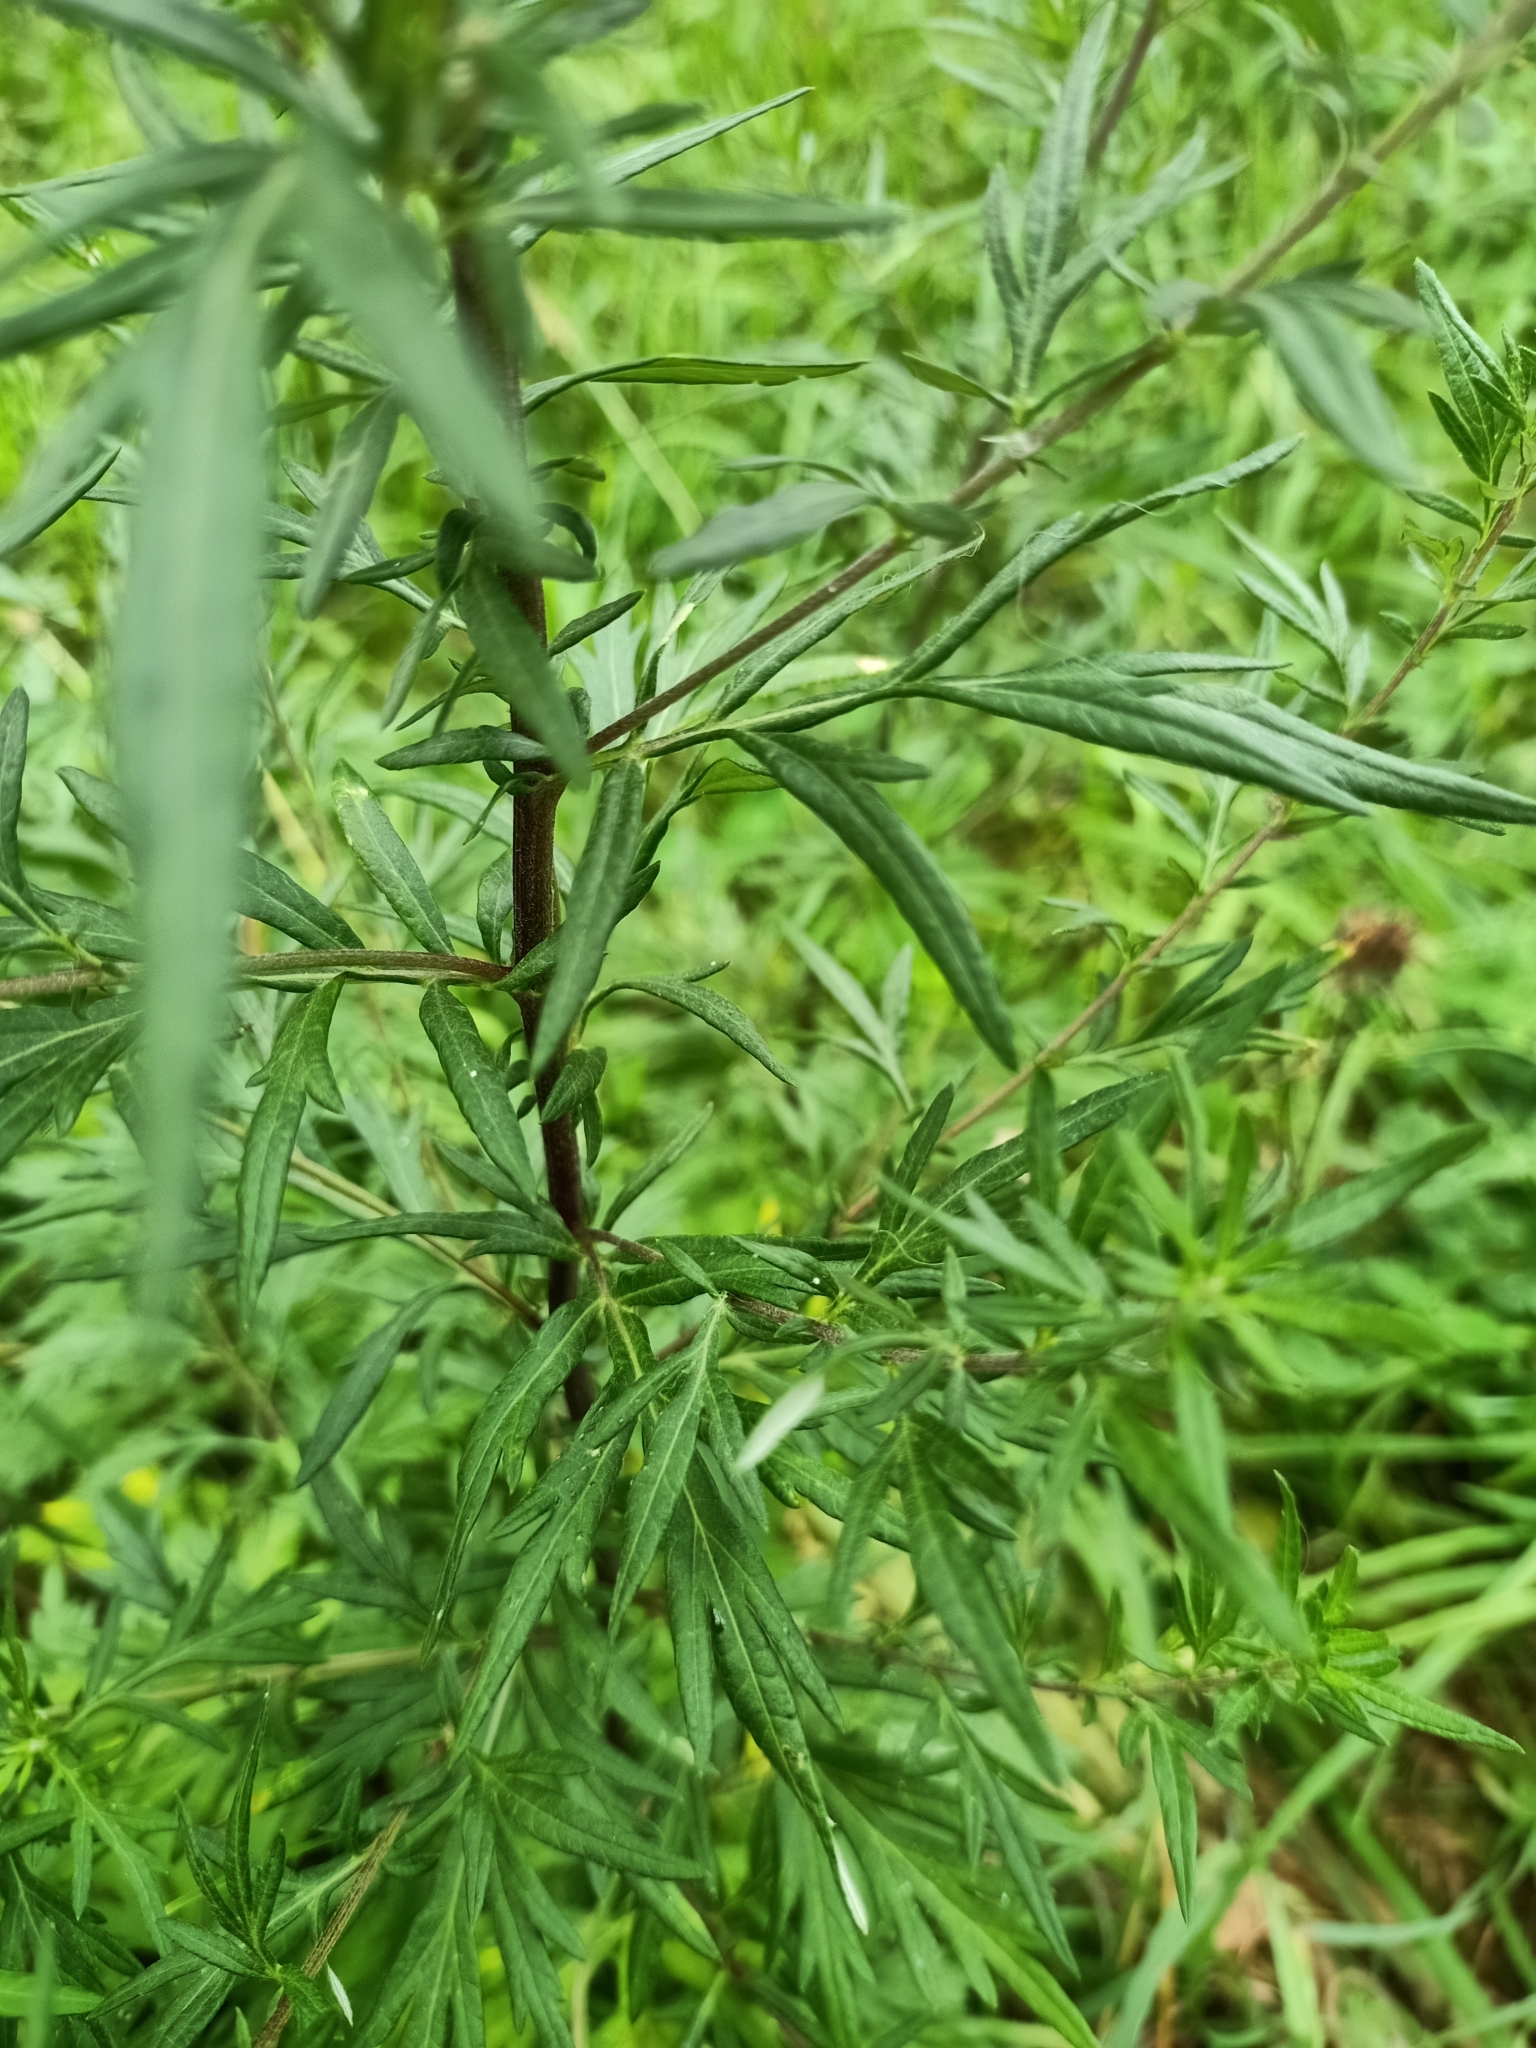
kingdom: Plantae
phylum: Tracheophyta
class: Magnoliopsida
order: Asterales
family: Asteraceae
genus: Artemisia
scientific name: Artemisia vulgaris
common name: Mugwort
